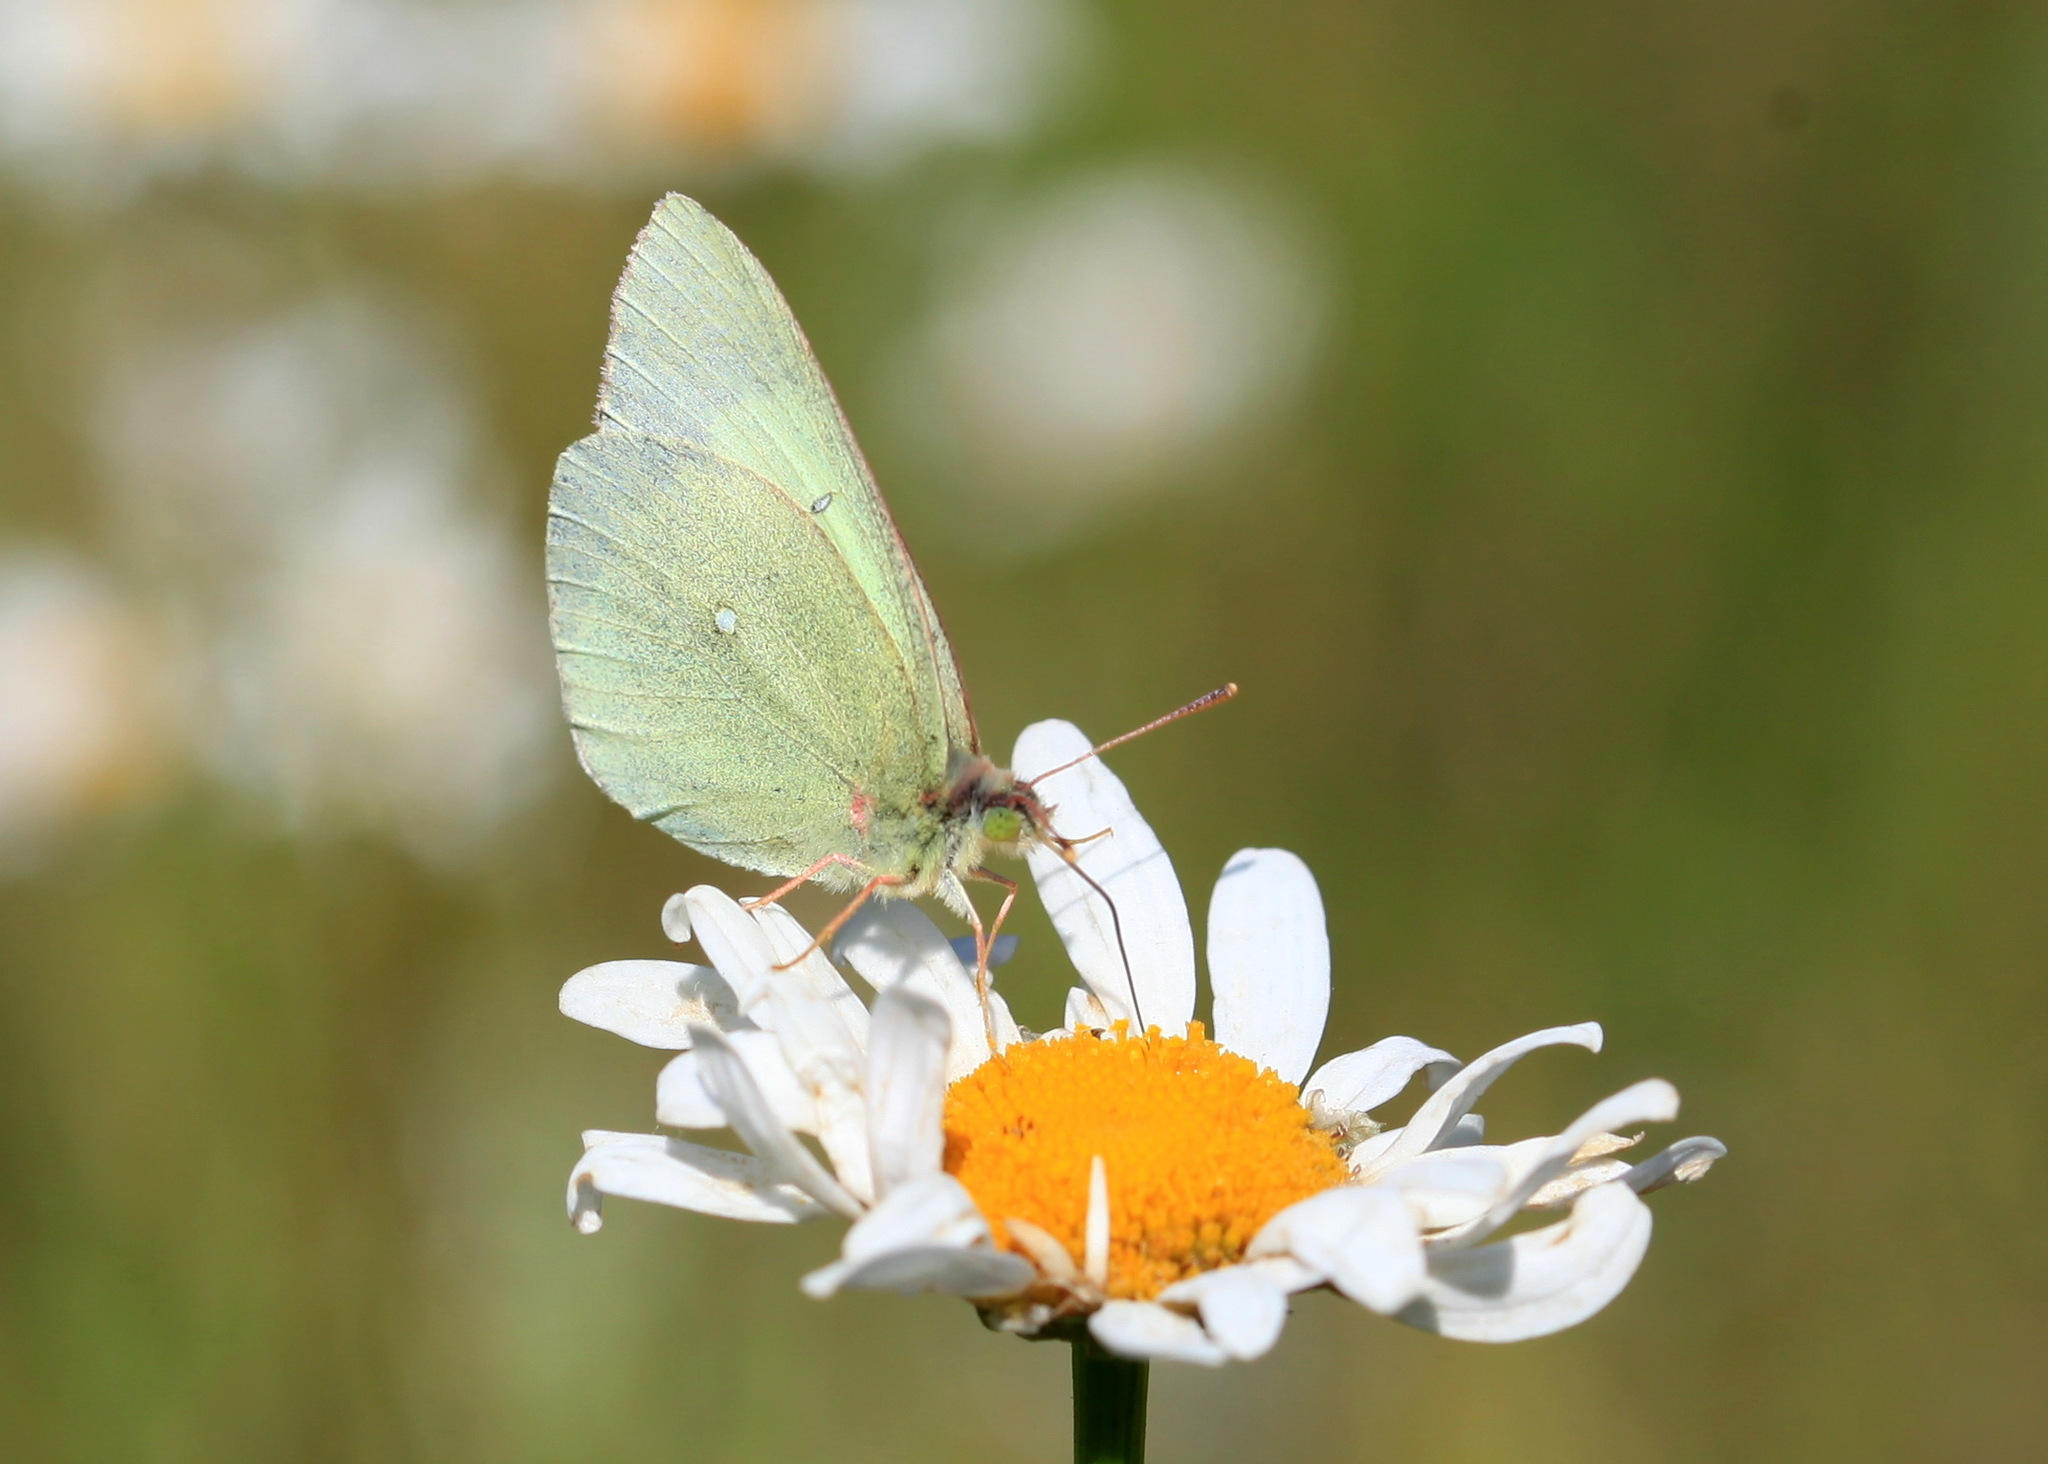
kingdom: Animalia
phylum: Arthropoda
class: Insecta
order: Lepidoptera
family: Pieridae
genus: Colias
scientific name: Colias palaeno
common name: Moorland clouded yellow
